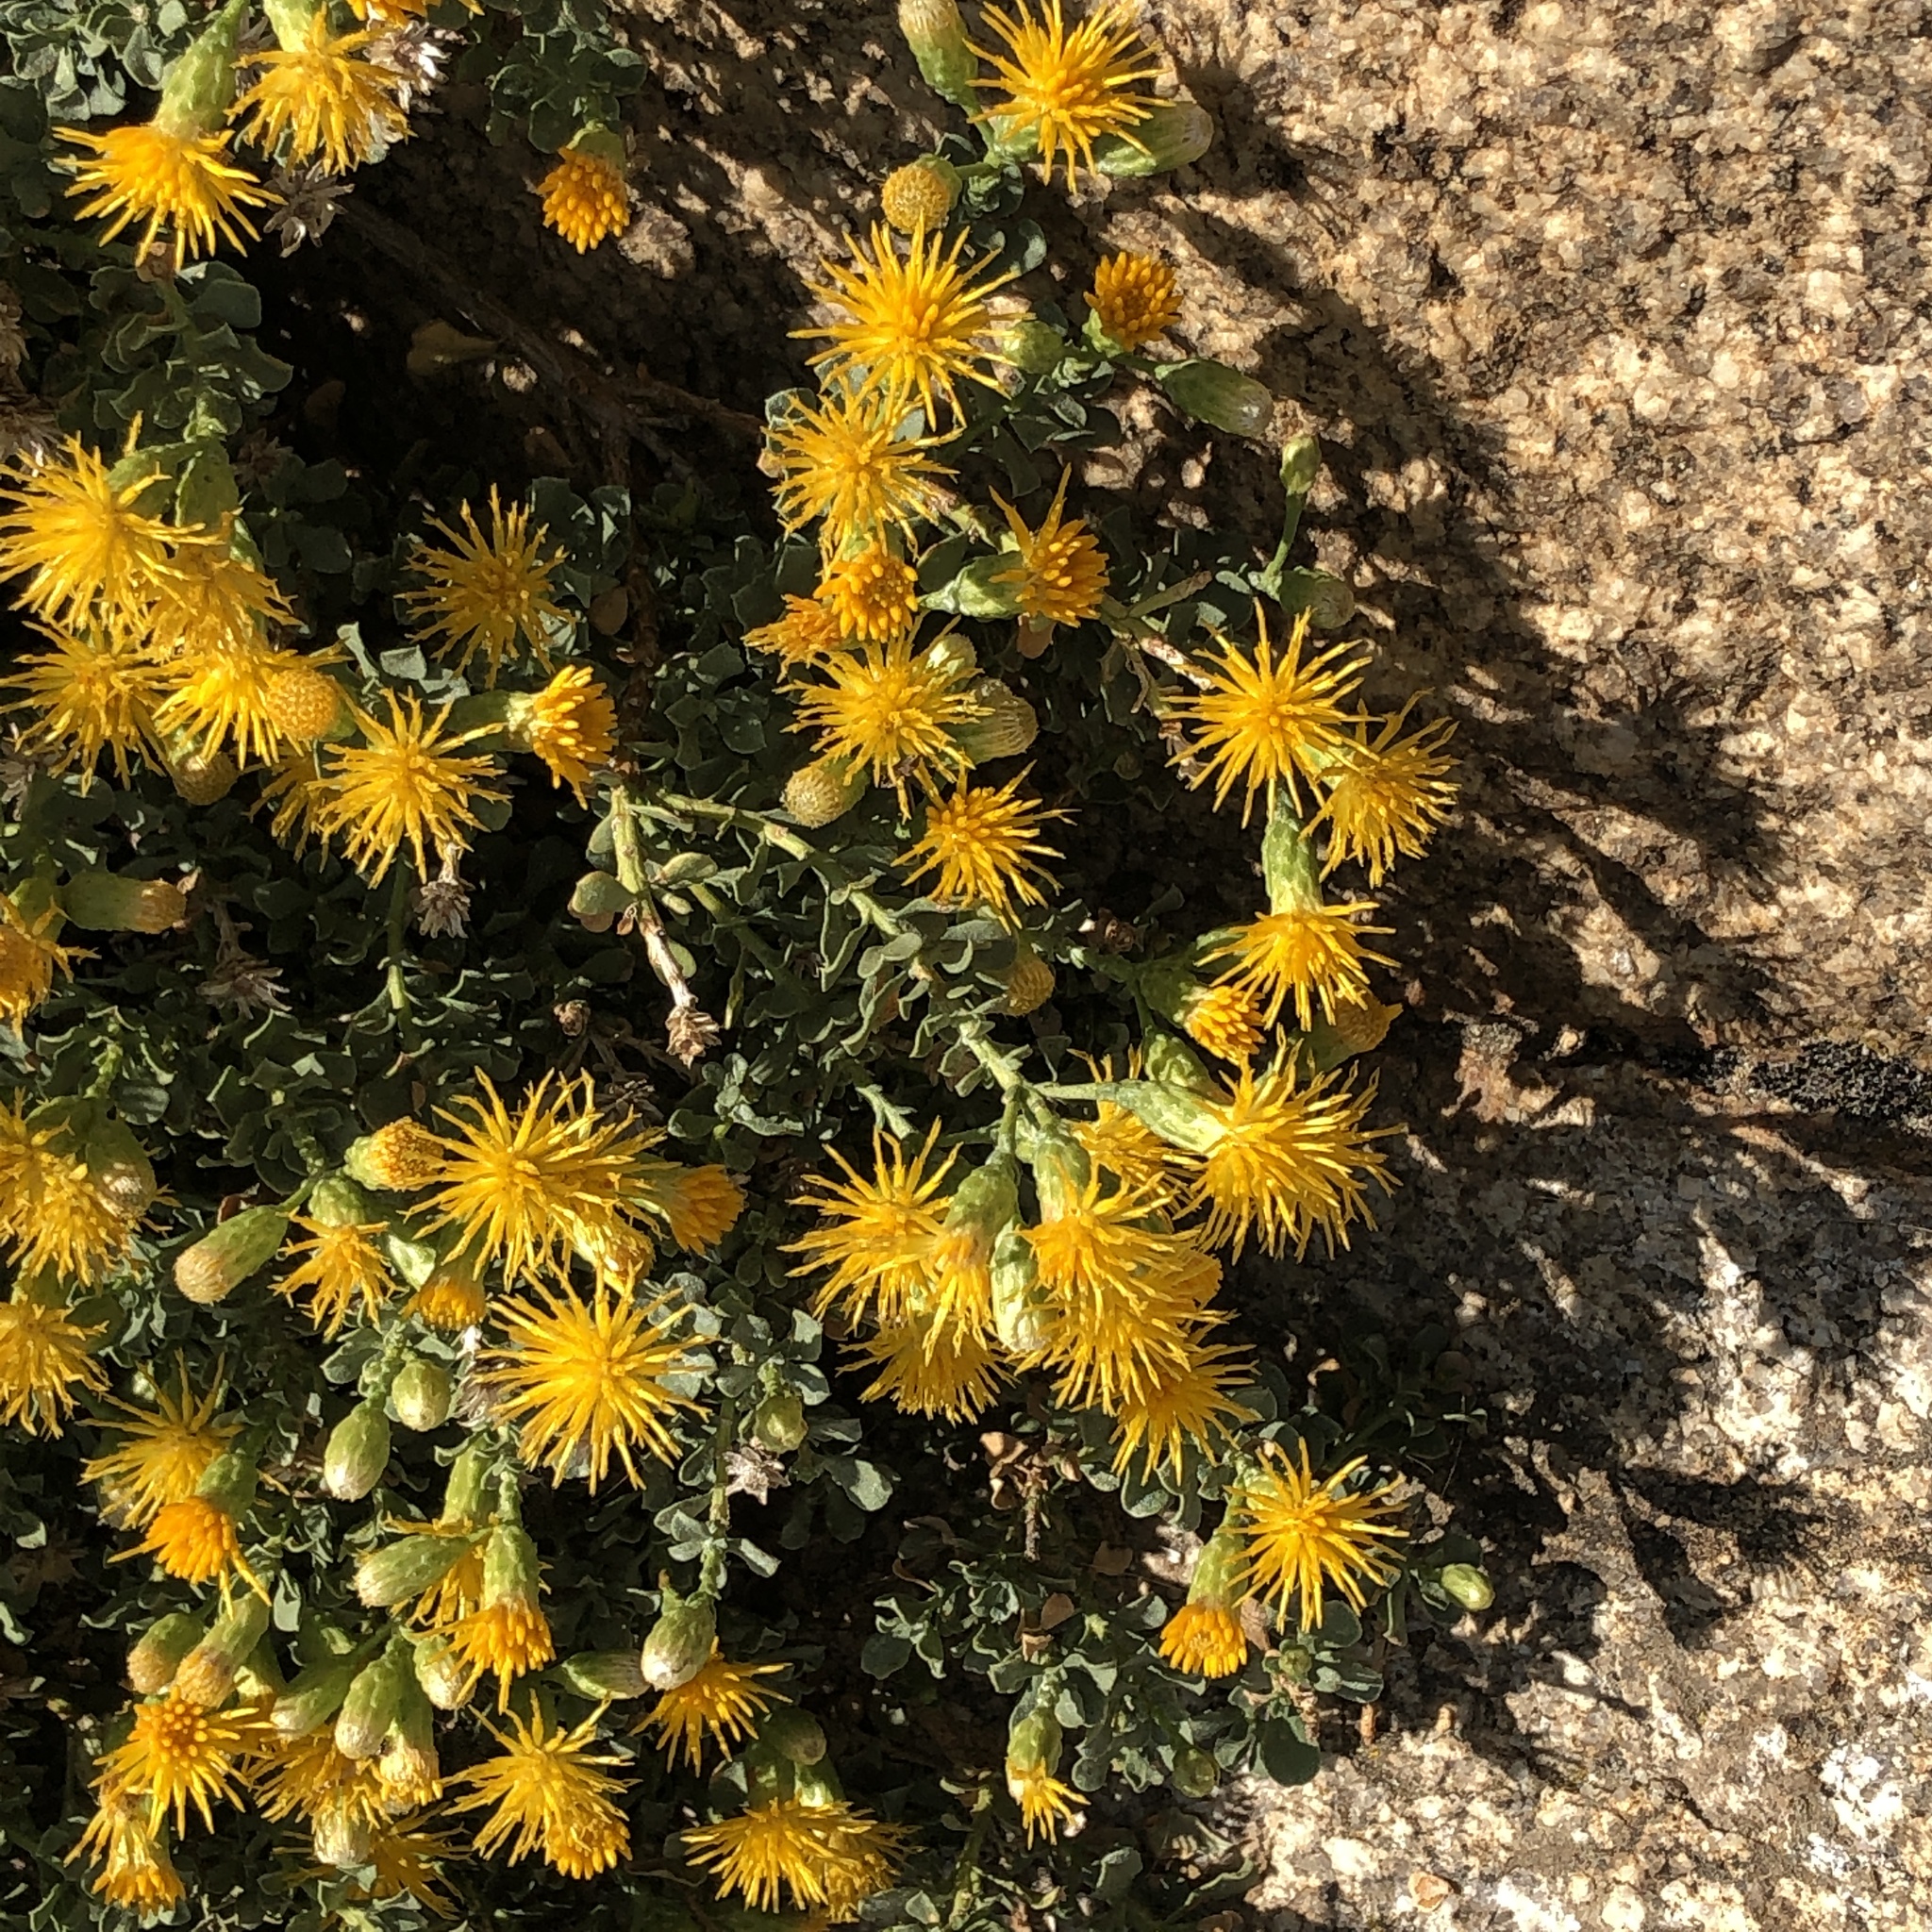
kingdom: Plantae
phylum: Tracheophyta
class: Magnoliopsida
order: Asterales
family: Asteraceae
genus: Ericameria
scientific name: Ericameria cuneata
